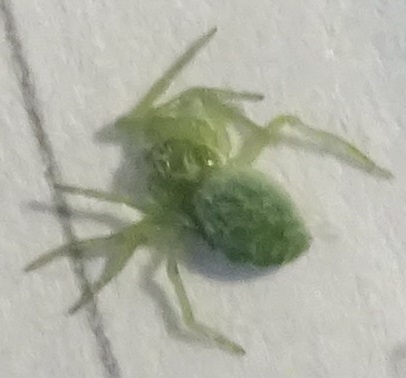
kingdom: Animalia
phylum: Arthropoda
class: Arachnida
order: Araneae
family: Dictynidae
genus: Nigma
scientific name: Nigma walckenaeri
